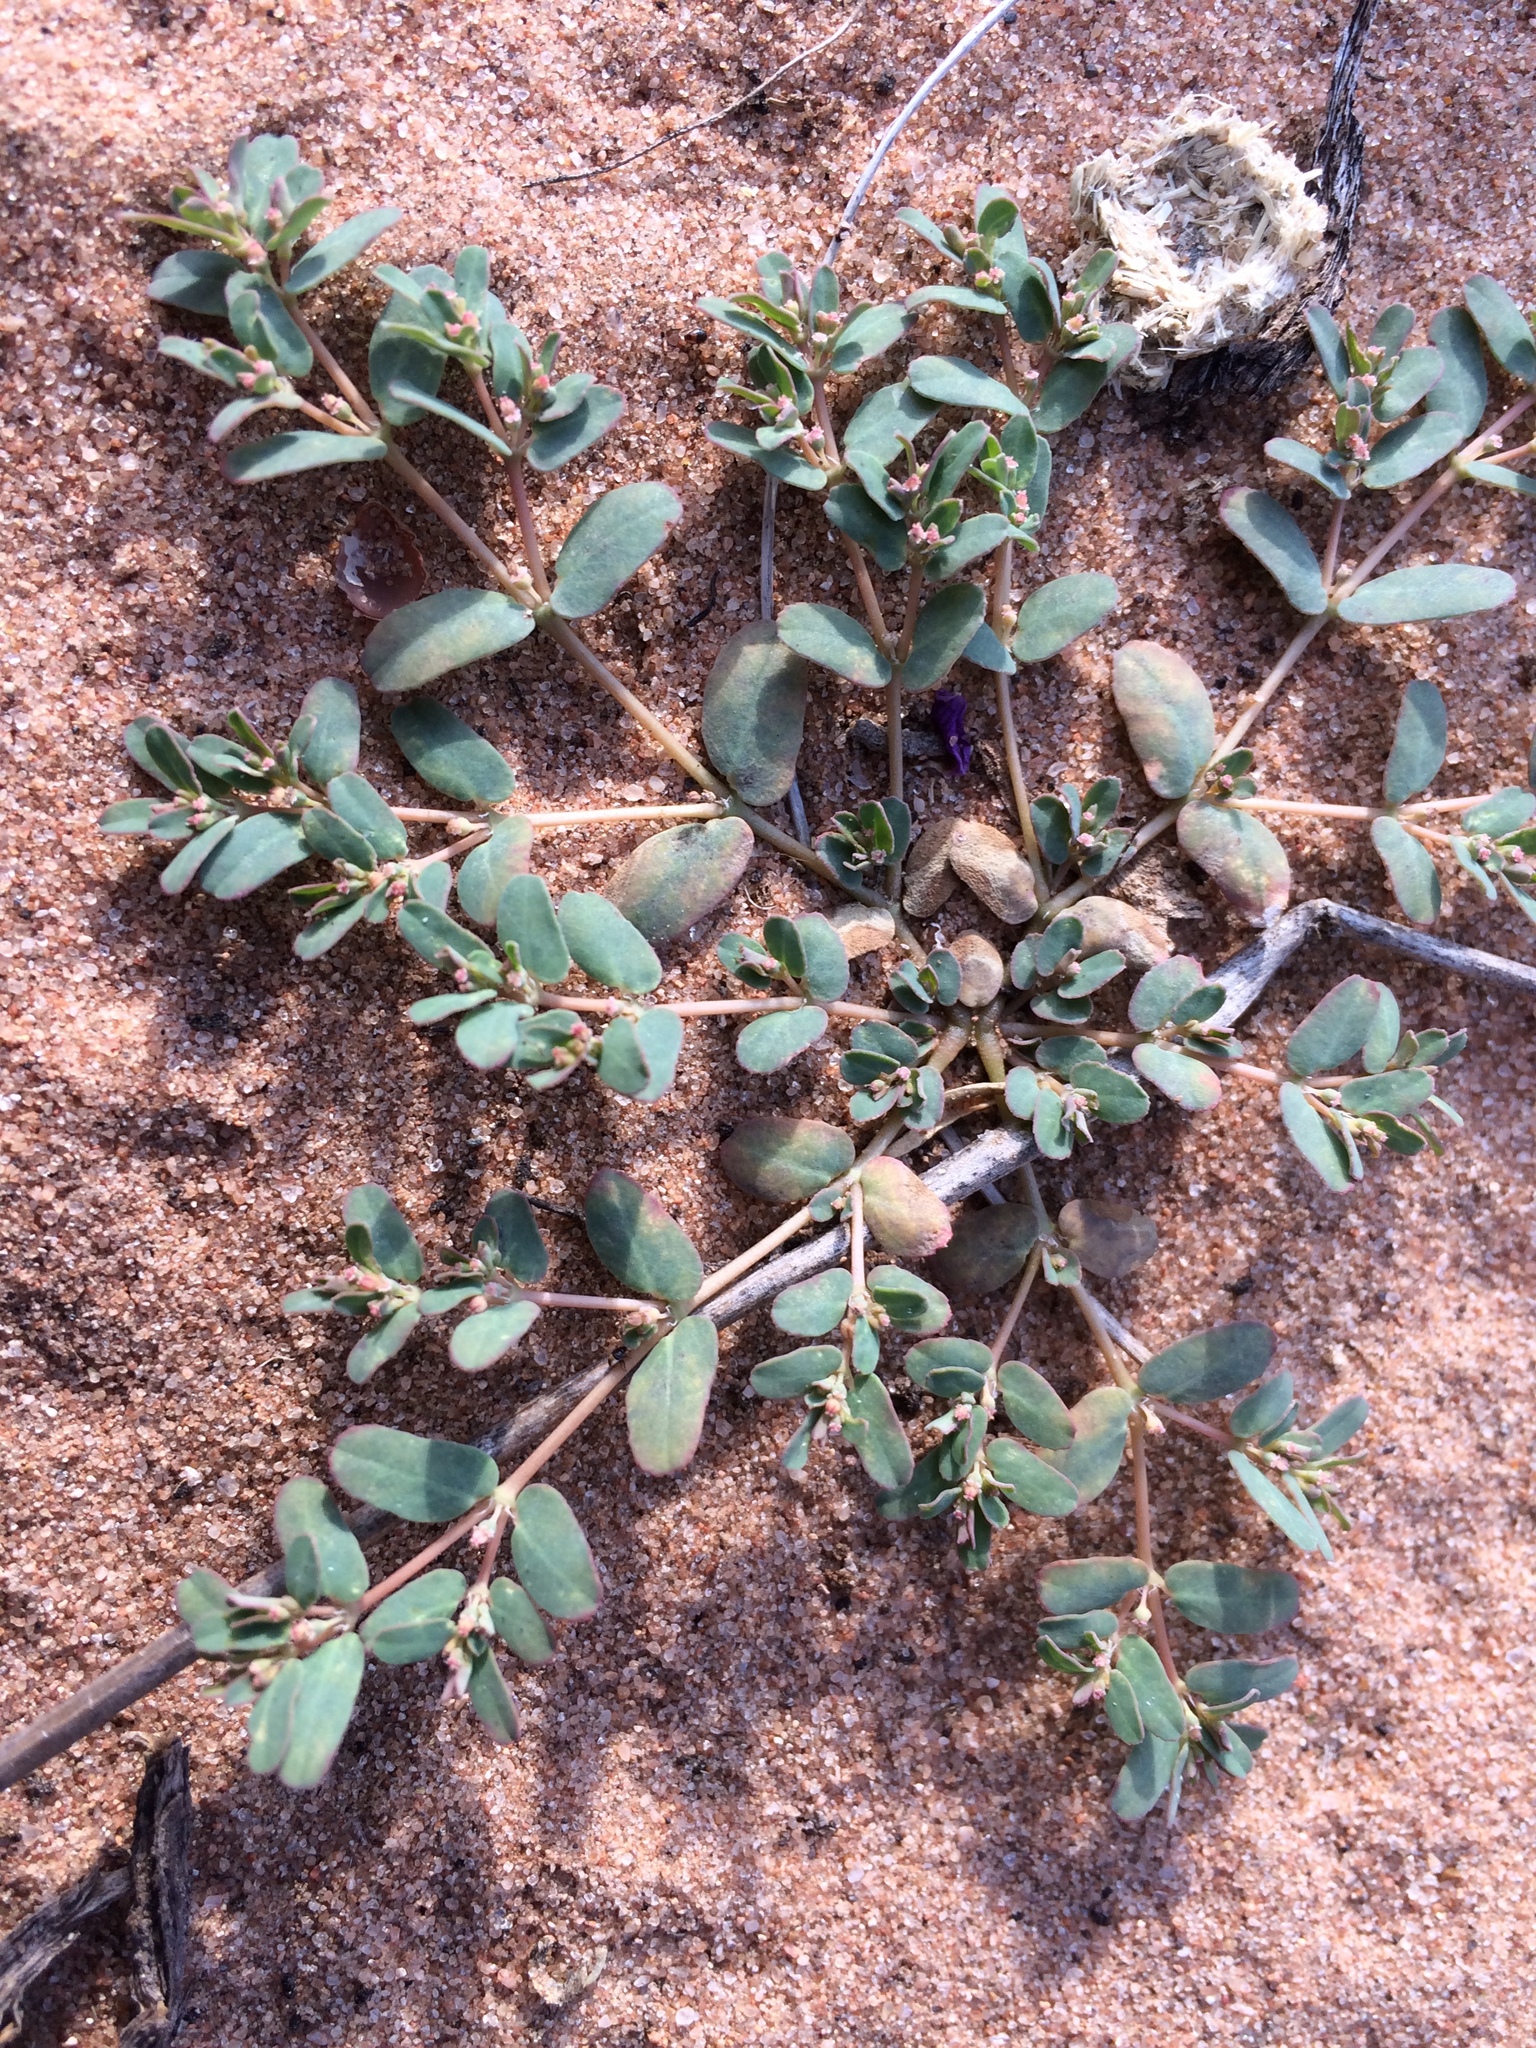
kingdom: Plantae
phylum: Tracheophyta
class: Magnoliopsida
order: Malpighiales
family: Euphorbiaceae
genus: Euphorbia
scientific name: Euphorbia glyptosperma
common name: Corrugate-seeded spurge
